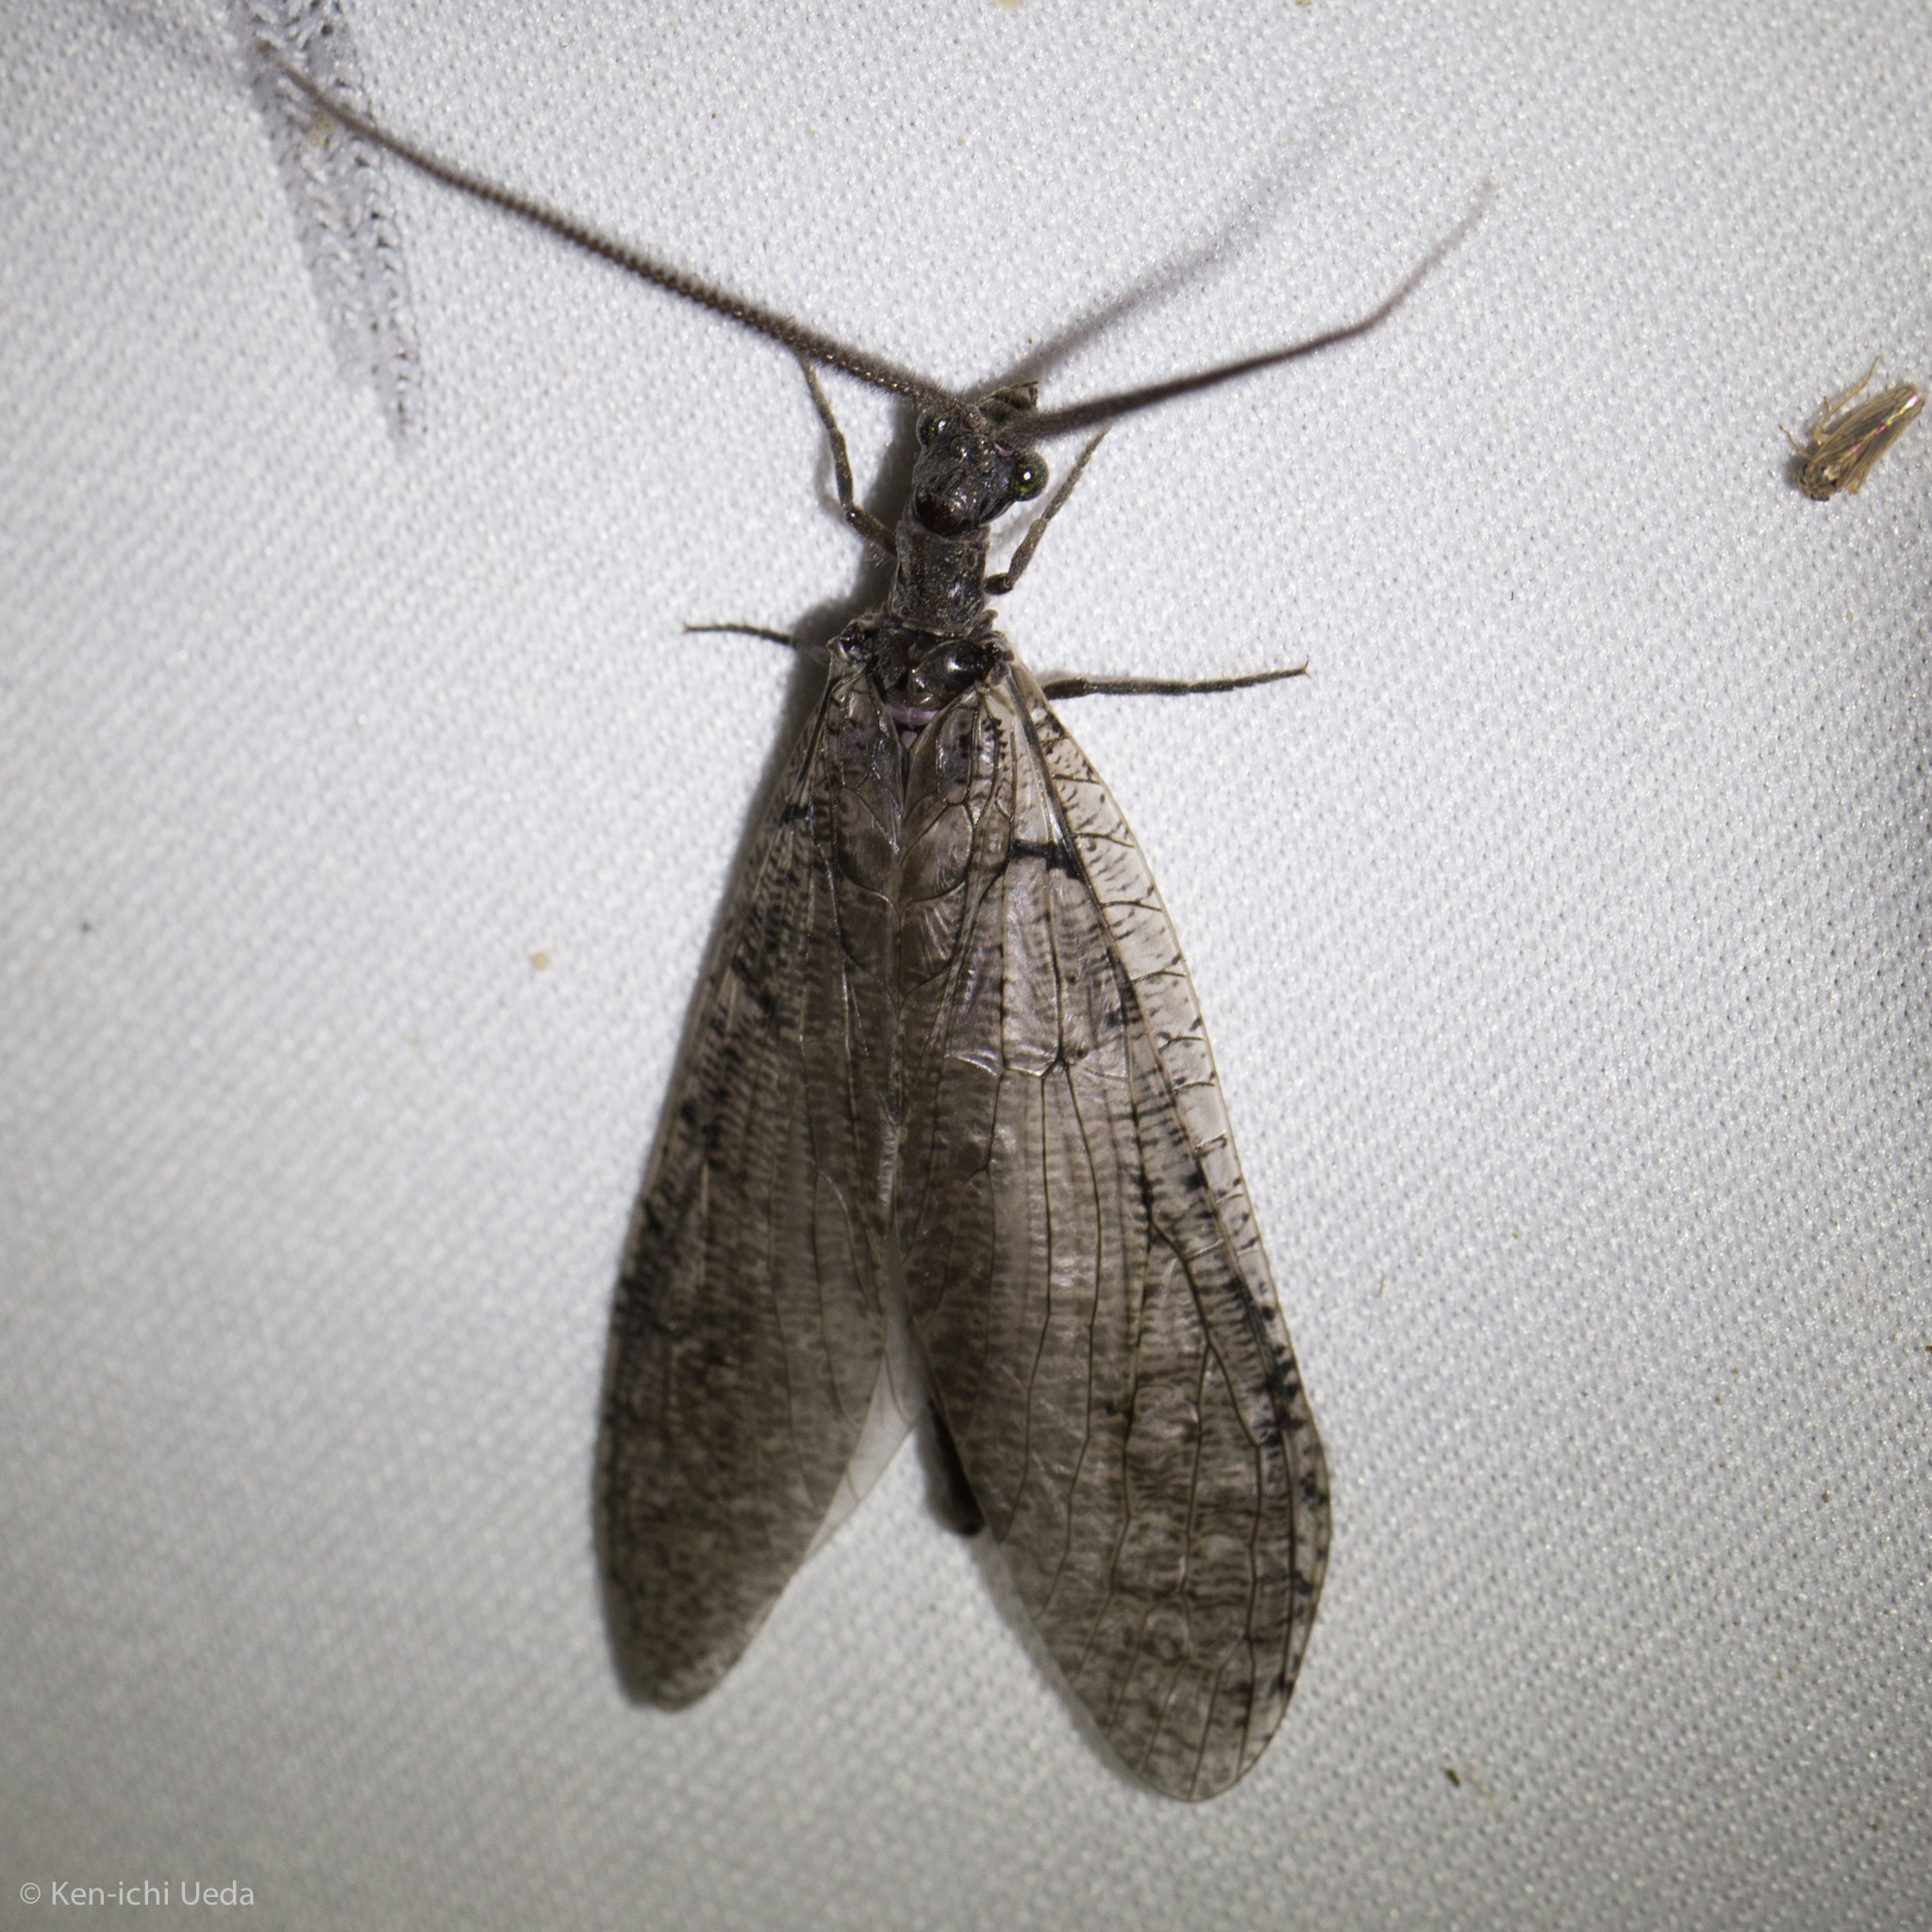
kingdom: Animalia
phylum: Arthropoda
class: Insecta
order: Megaloptera
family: Corydalidae
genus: Neohermes
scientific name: Neohermes filicornis
